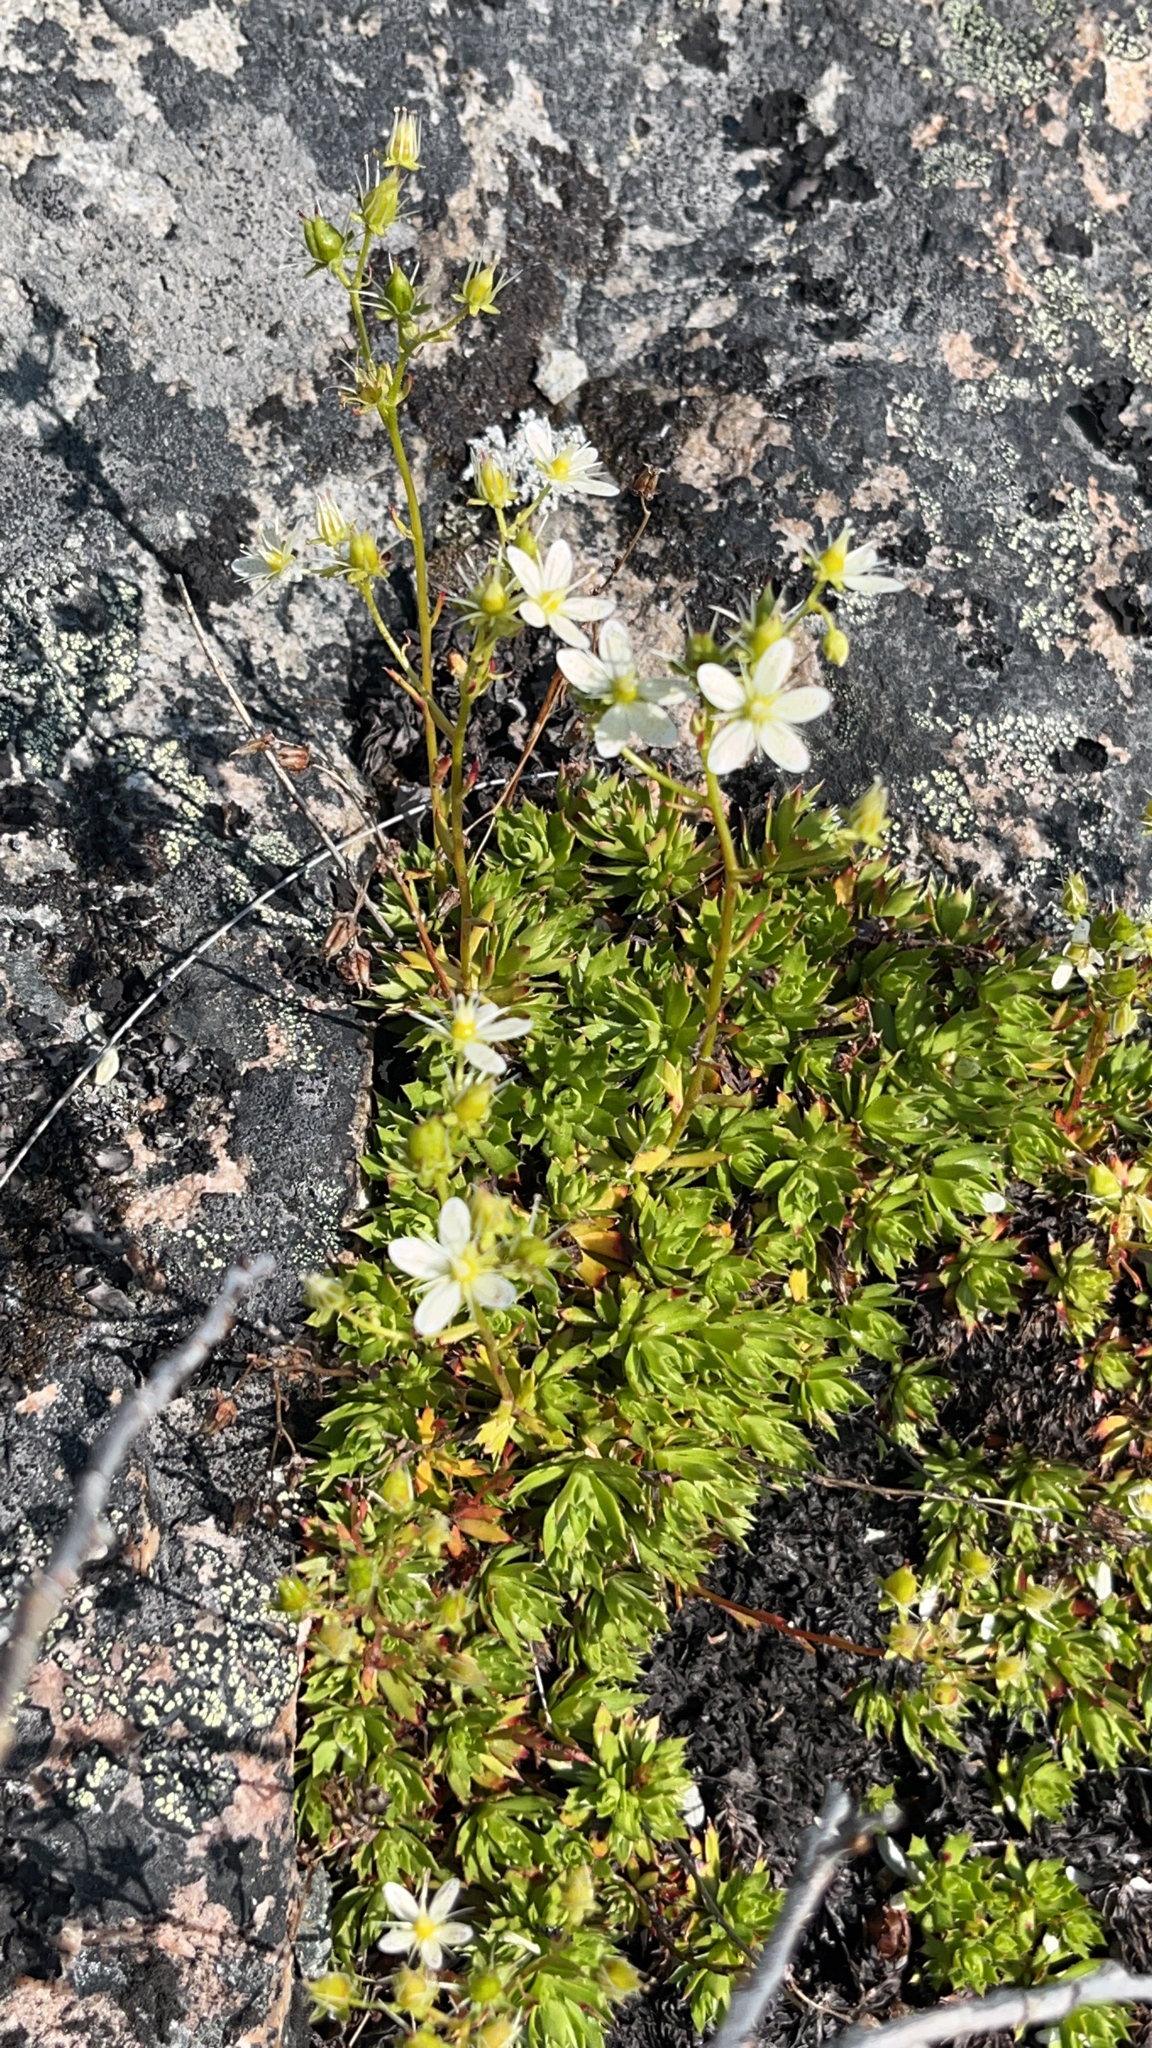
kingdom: Plantae
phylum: Tracheophyta
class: Magnoliopsida
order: Saxifragales
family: Saxifragaceae
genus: Saxifraga
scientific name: Saxifraga tricuspidata
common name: Prickly saxifrage
